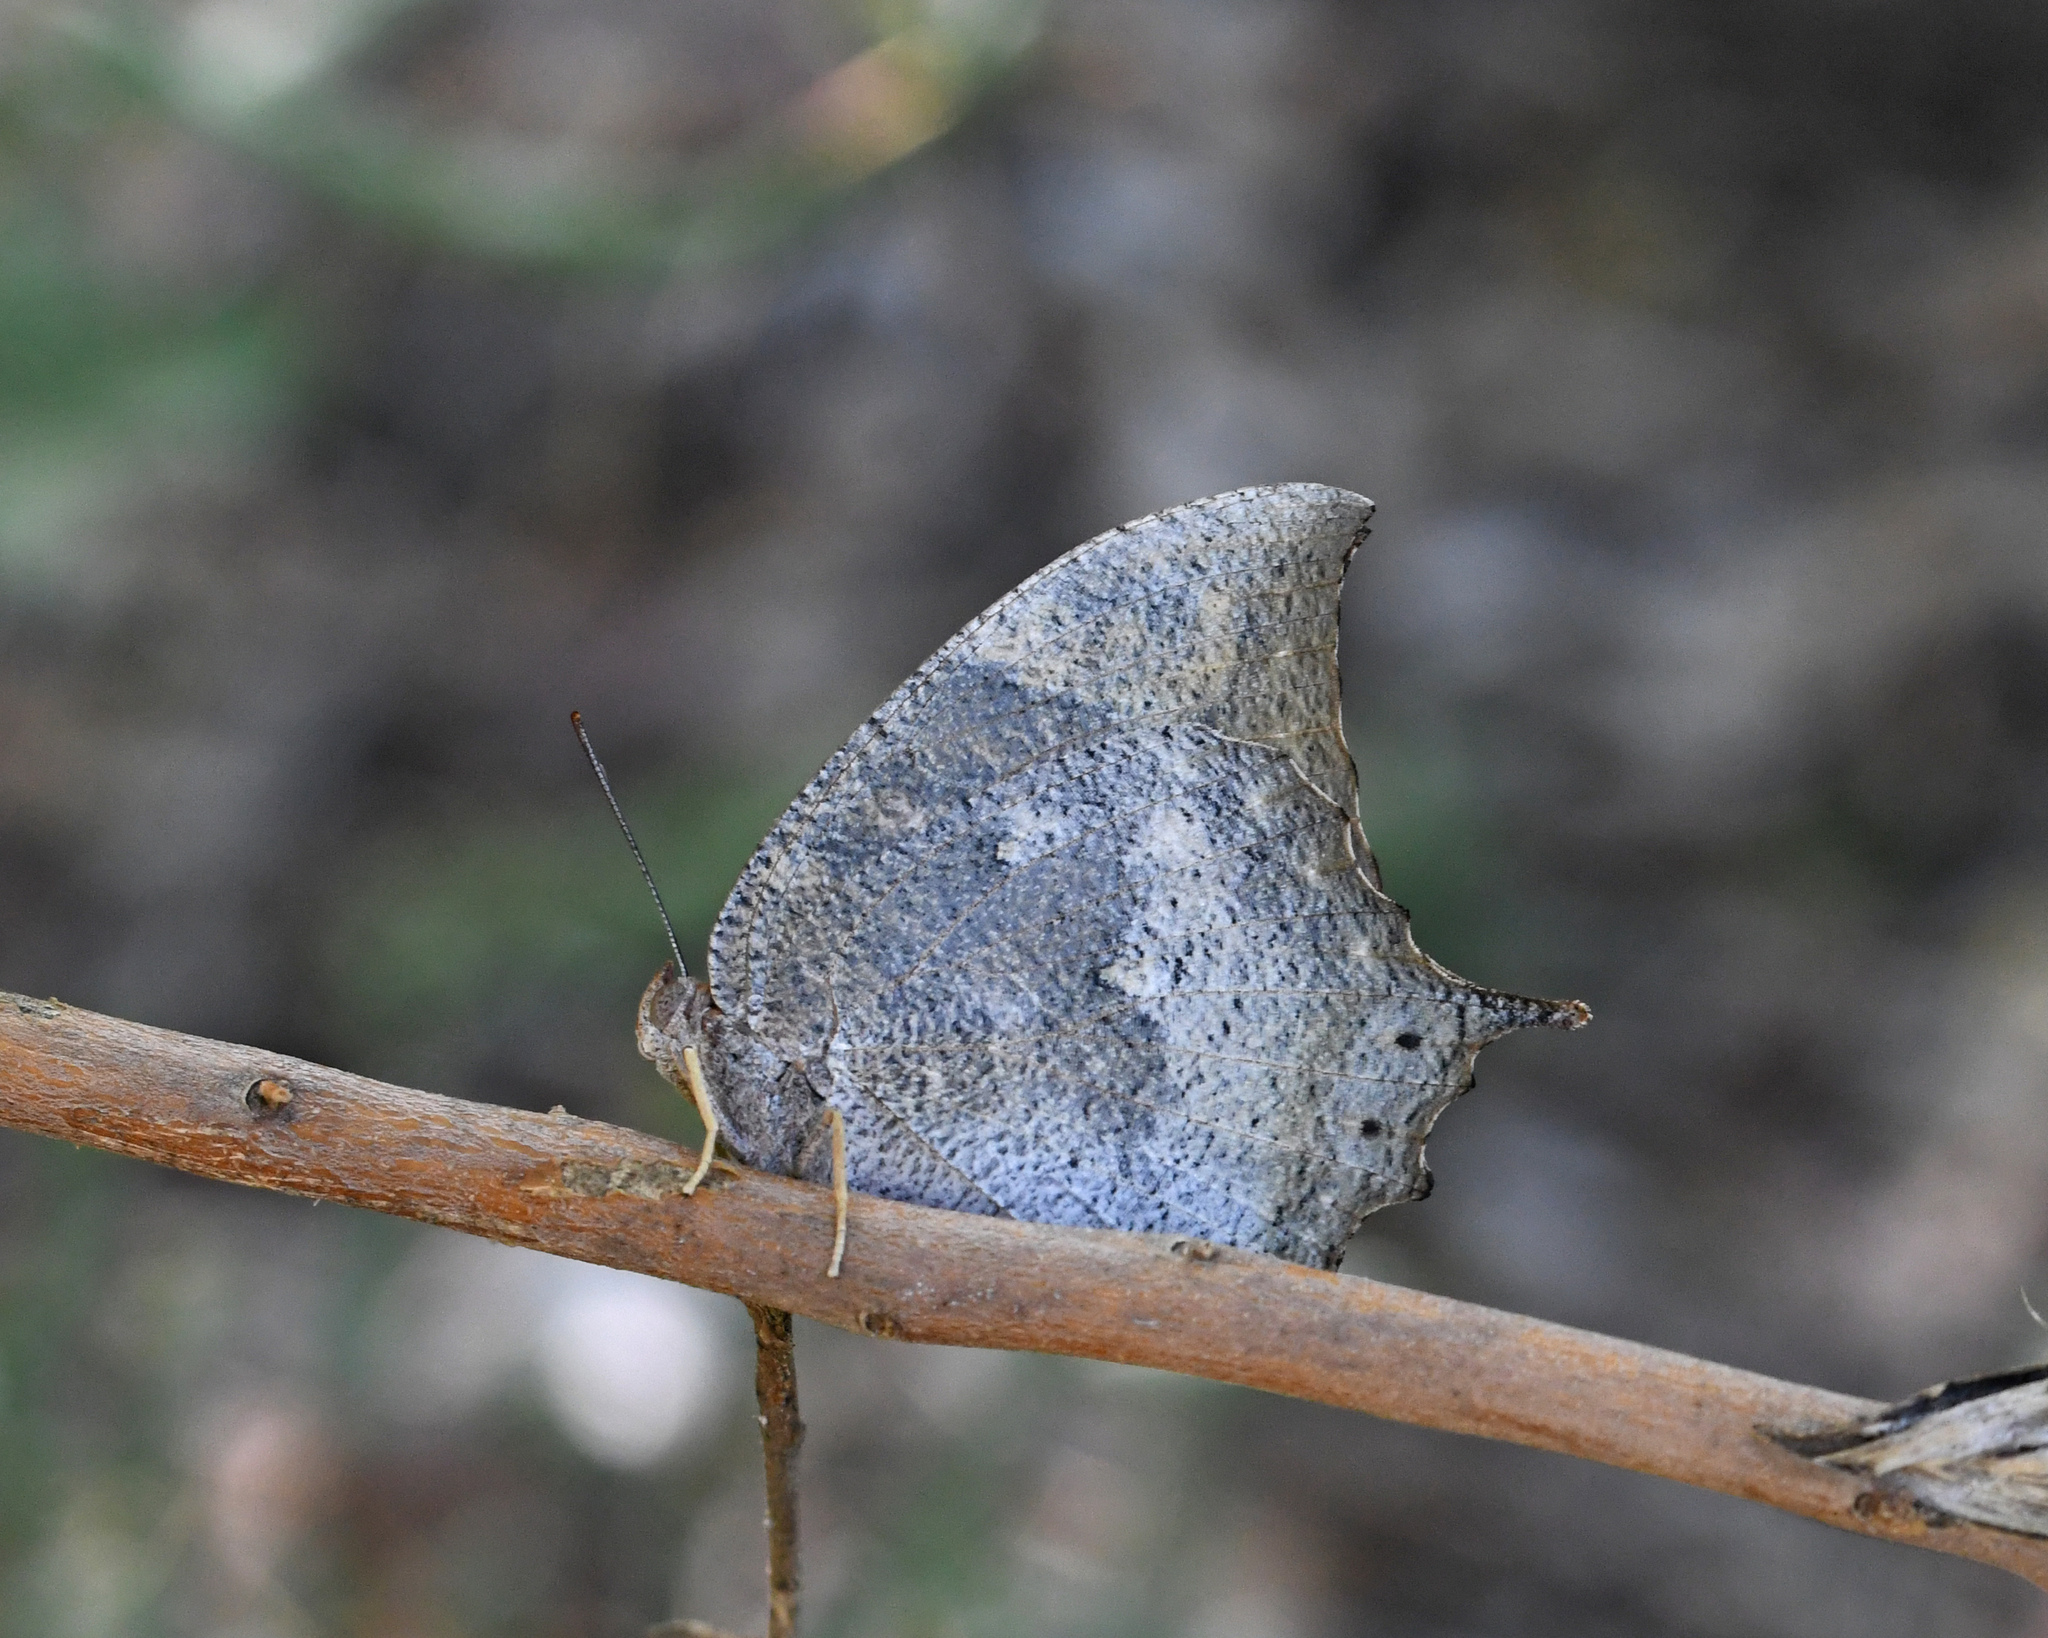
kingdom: Animalia
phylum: Arthropoda
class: Insecta
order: Lepidoptera
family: Nymphalidae
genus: Anaea
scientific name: Anaea troglodyta
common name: Florida leafwing
